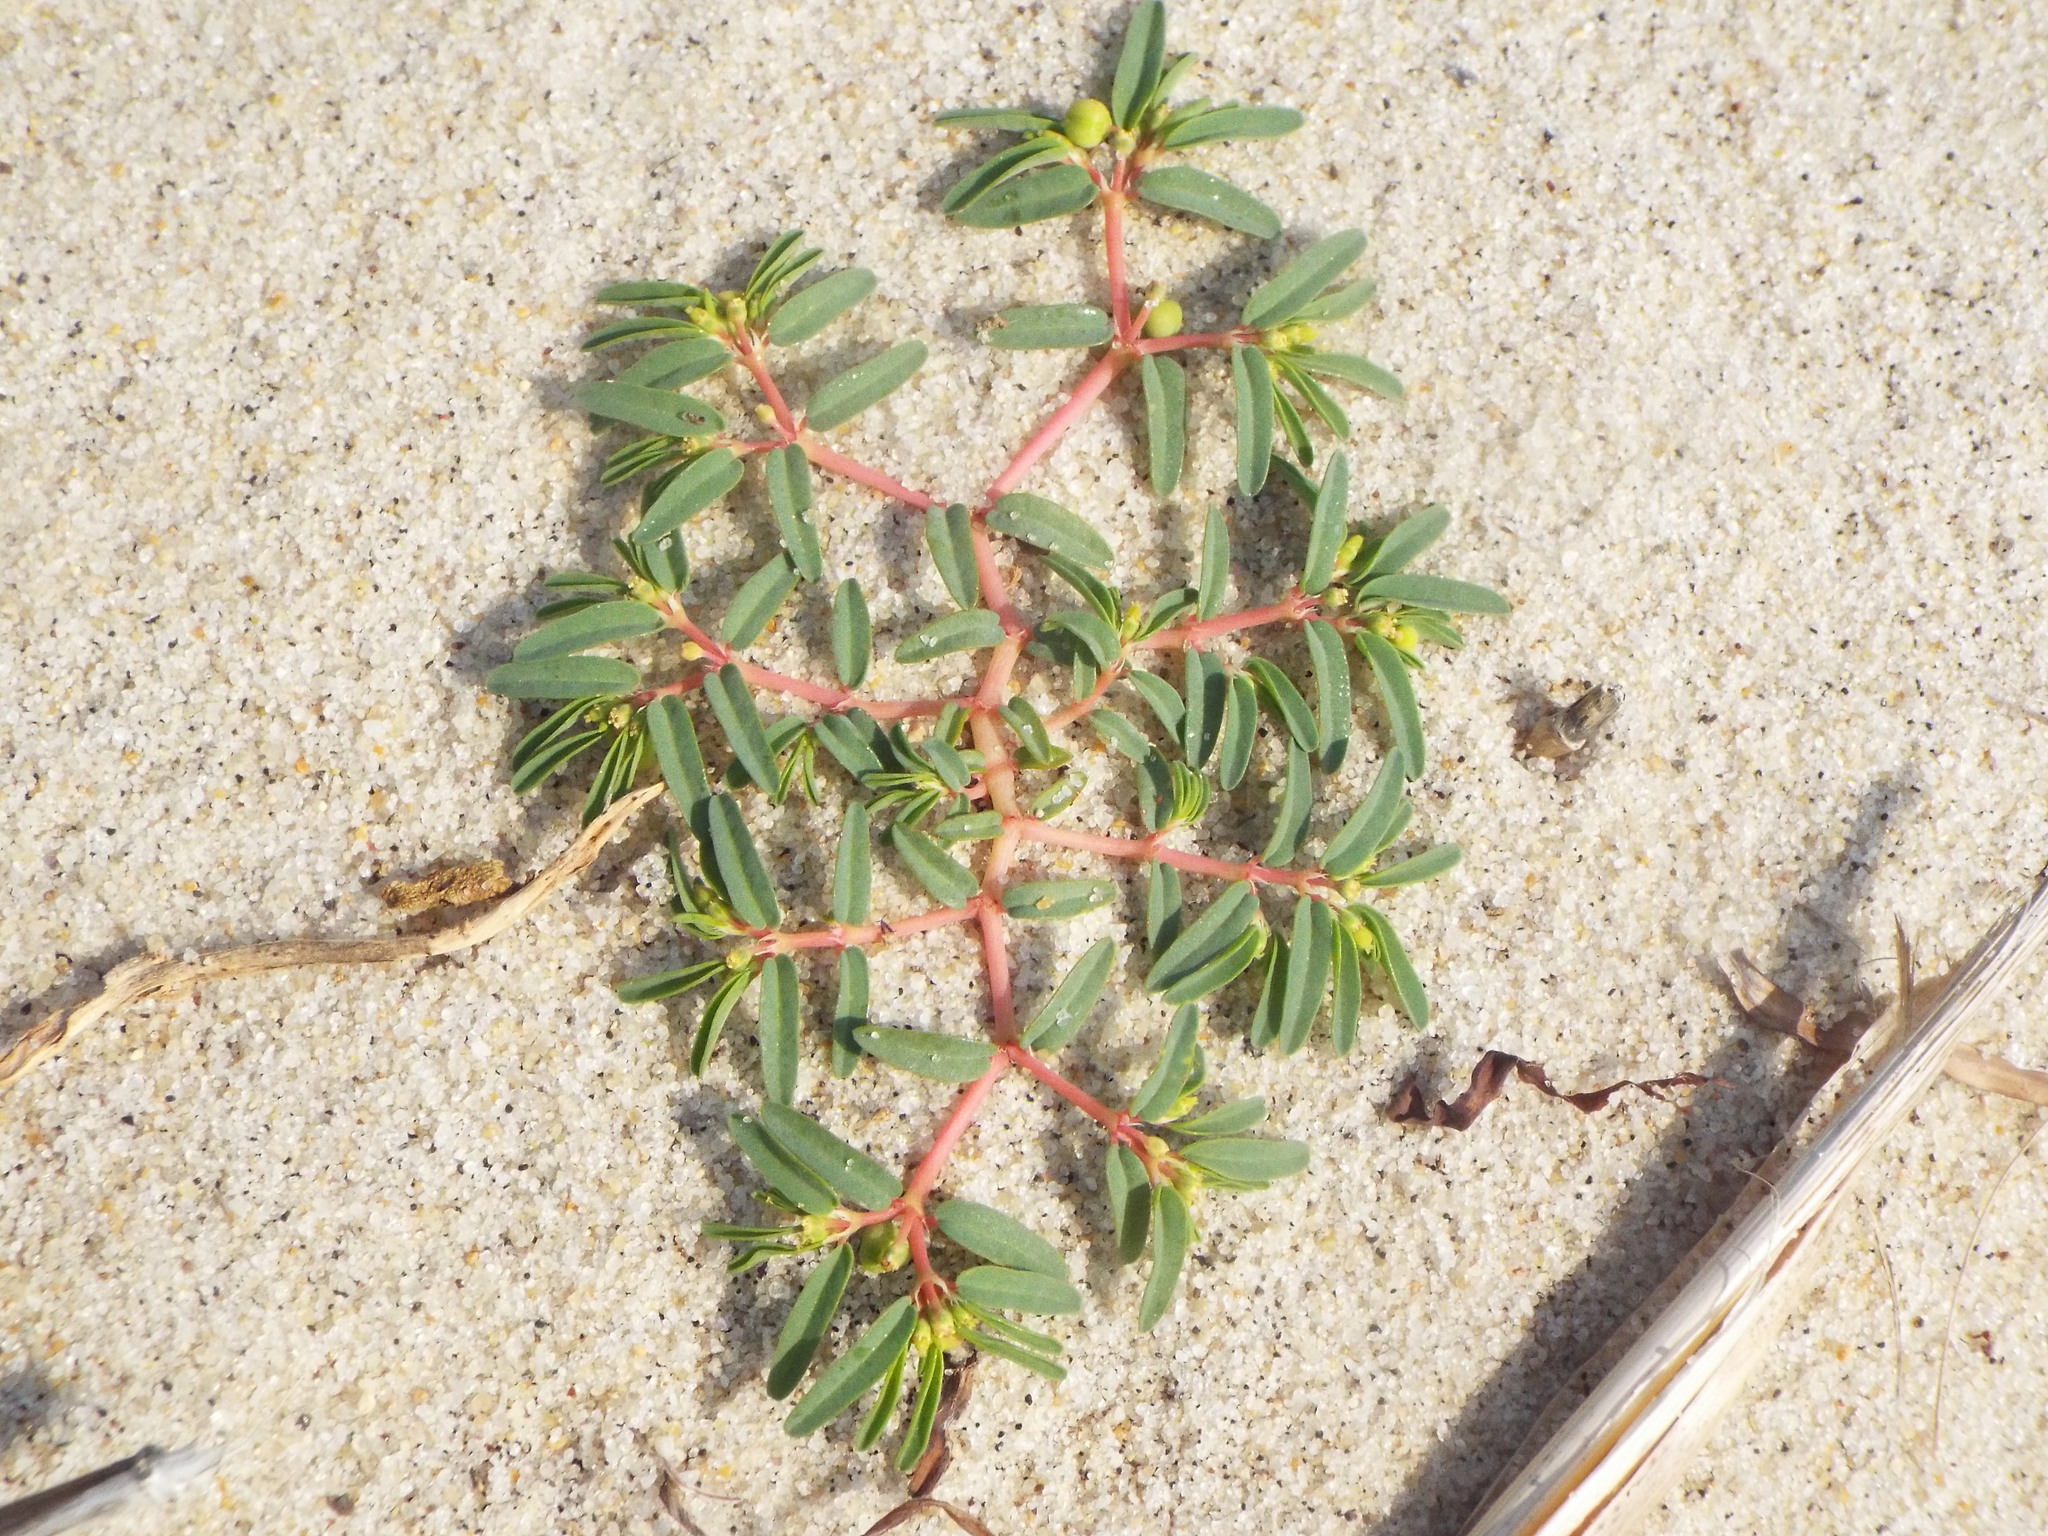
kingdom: Plantae
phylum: Tracheophyta
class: Magnoliopsida
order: Malpighiales
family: Euphorbiaceae
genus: Euphorbia
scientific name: Euphorbia polygonifolia
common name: Knotweed spurge
